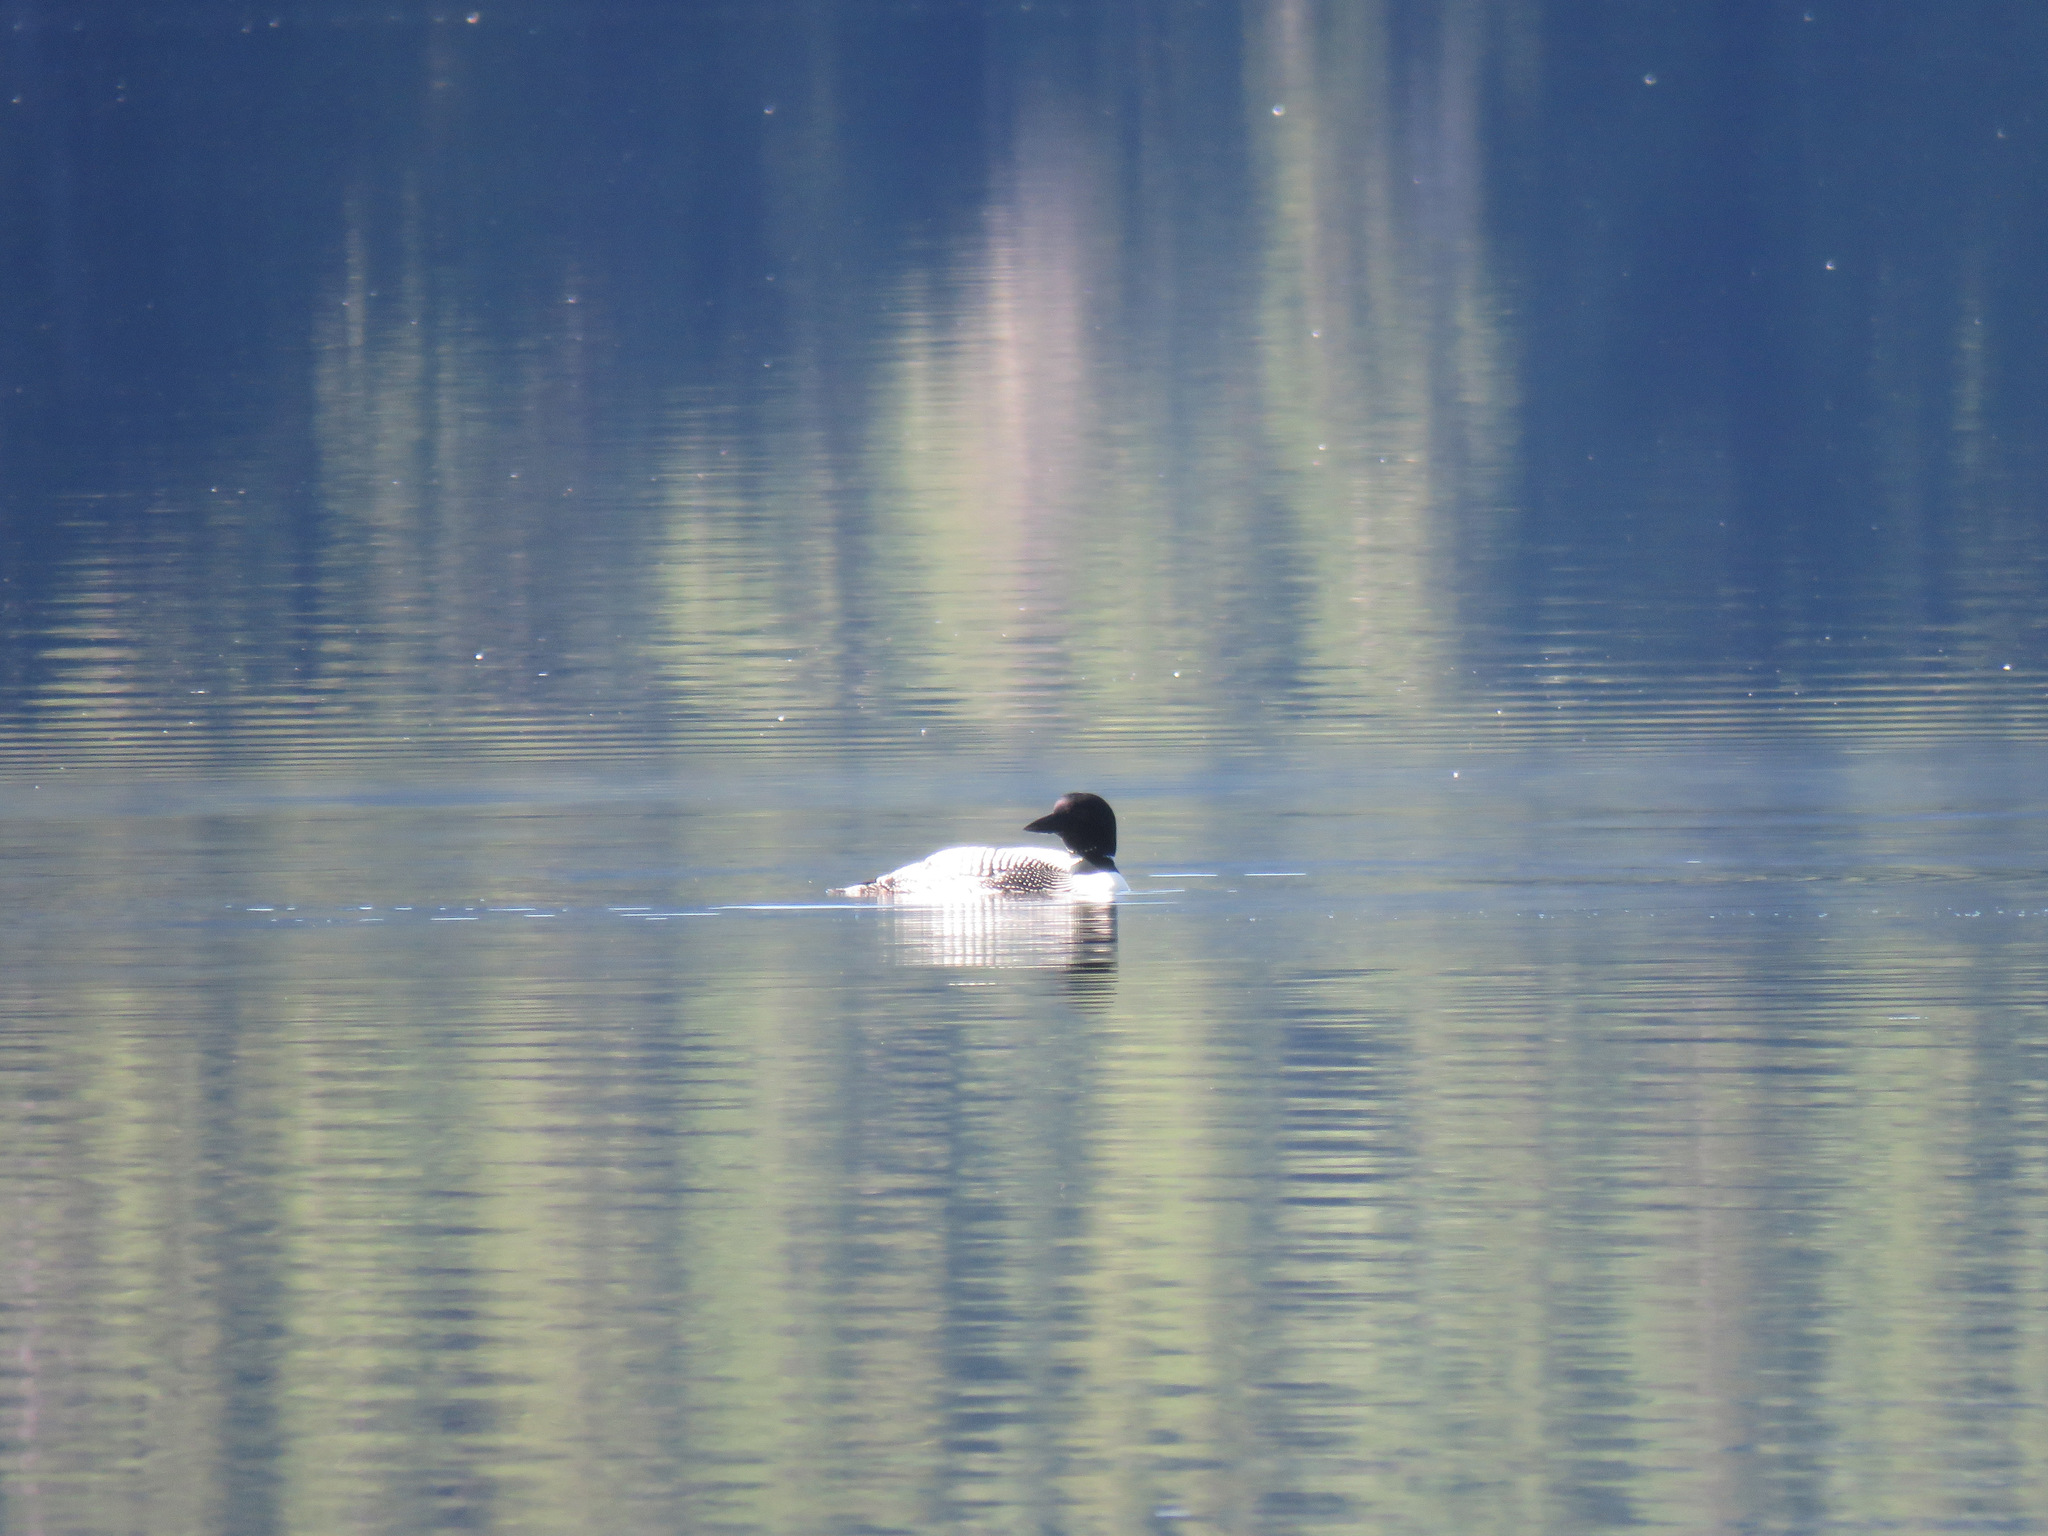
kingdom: Animalia
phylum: Chordata
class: Aves
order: Gaviiformes
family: Gaviidae
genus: Gavia
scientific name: Gavia immer
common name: Common loon
